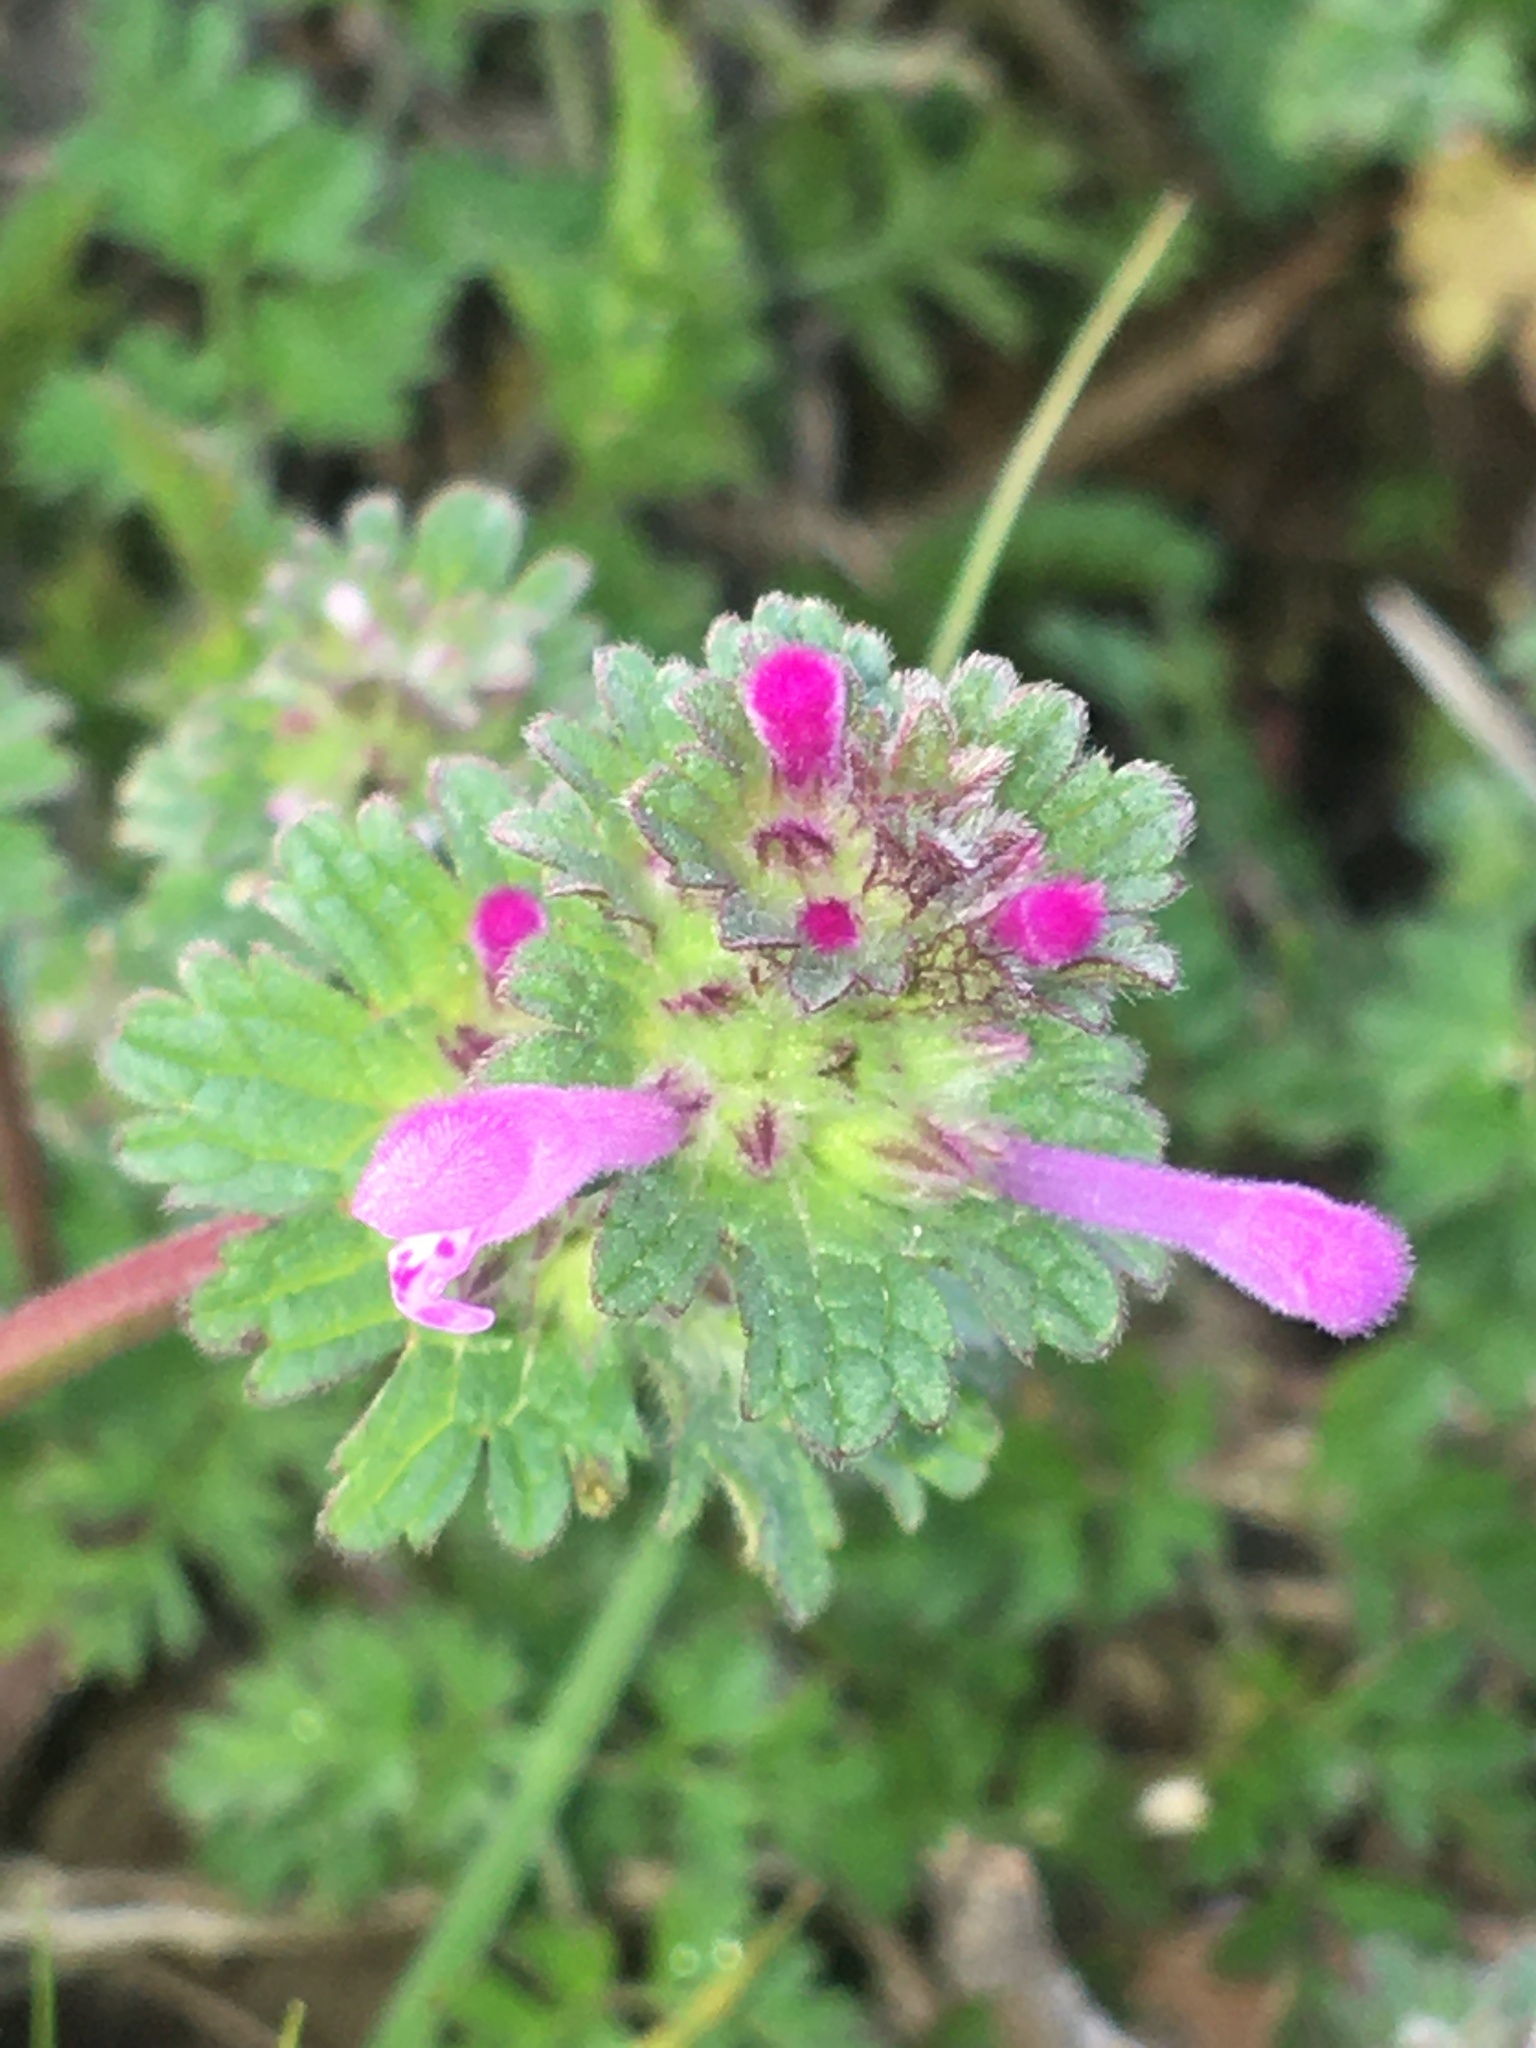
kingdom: Plantae
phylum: Tracheophyta
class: Magnoliopsida
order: Lamiales
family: Lamiaceae
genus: Lamium
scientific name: Lamium amplexicaule
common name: Henbit dead-nettle
